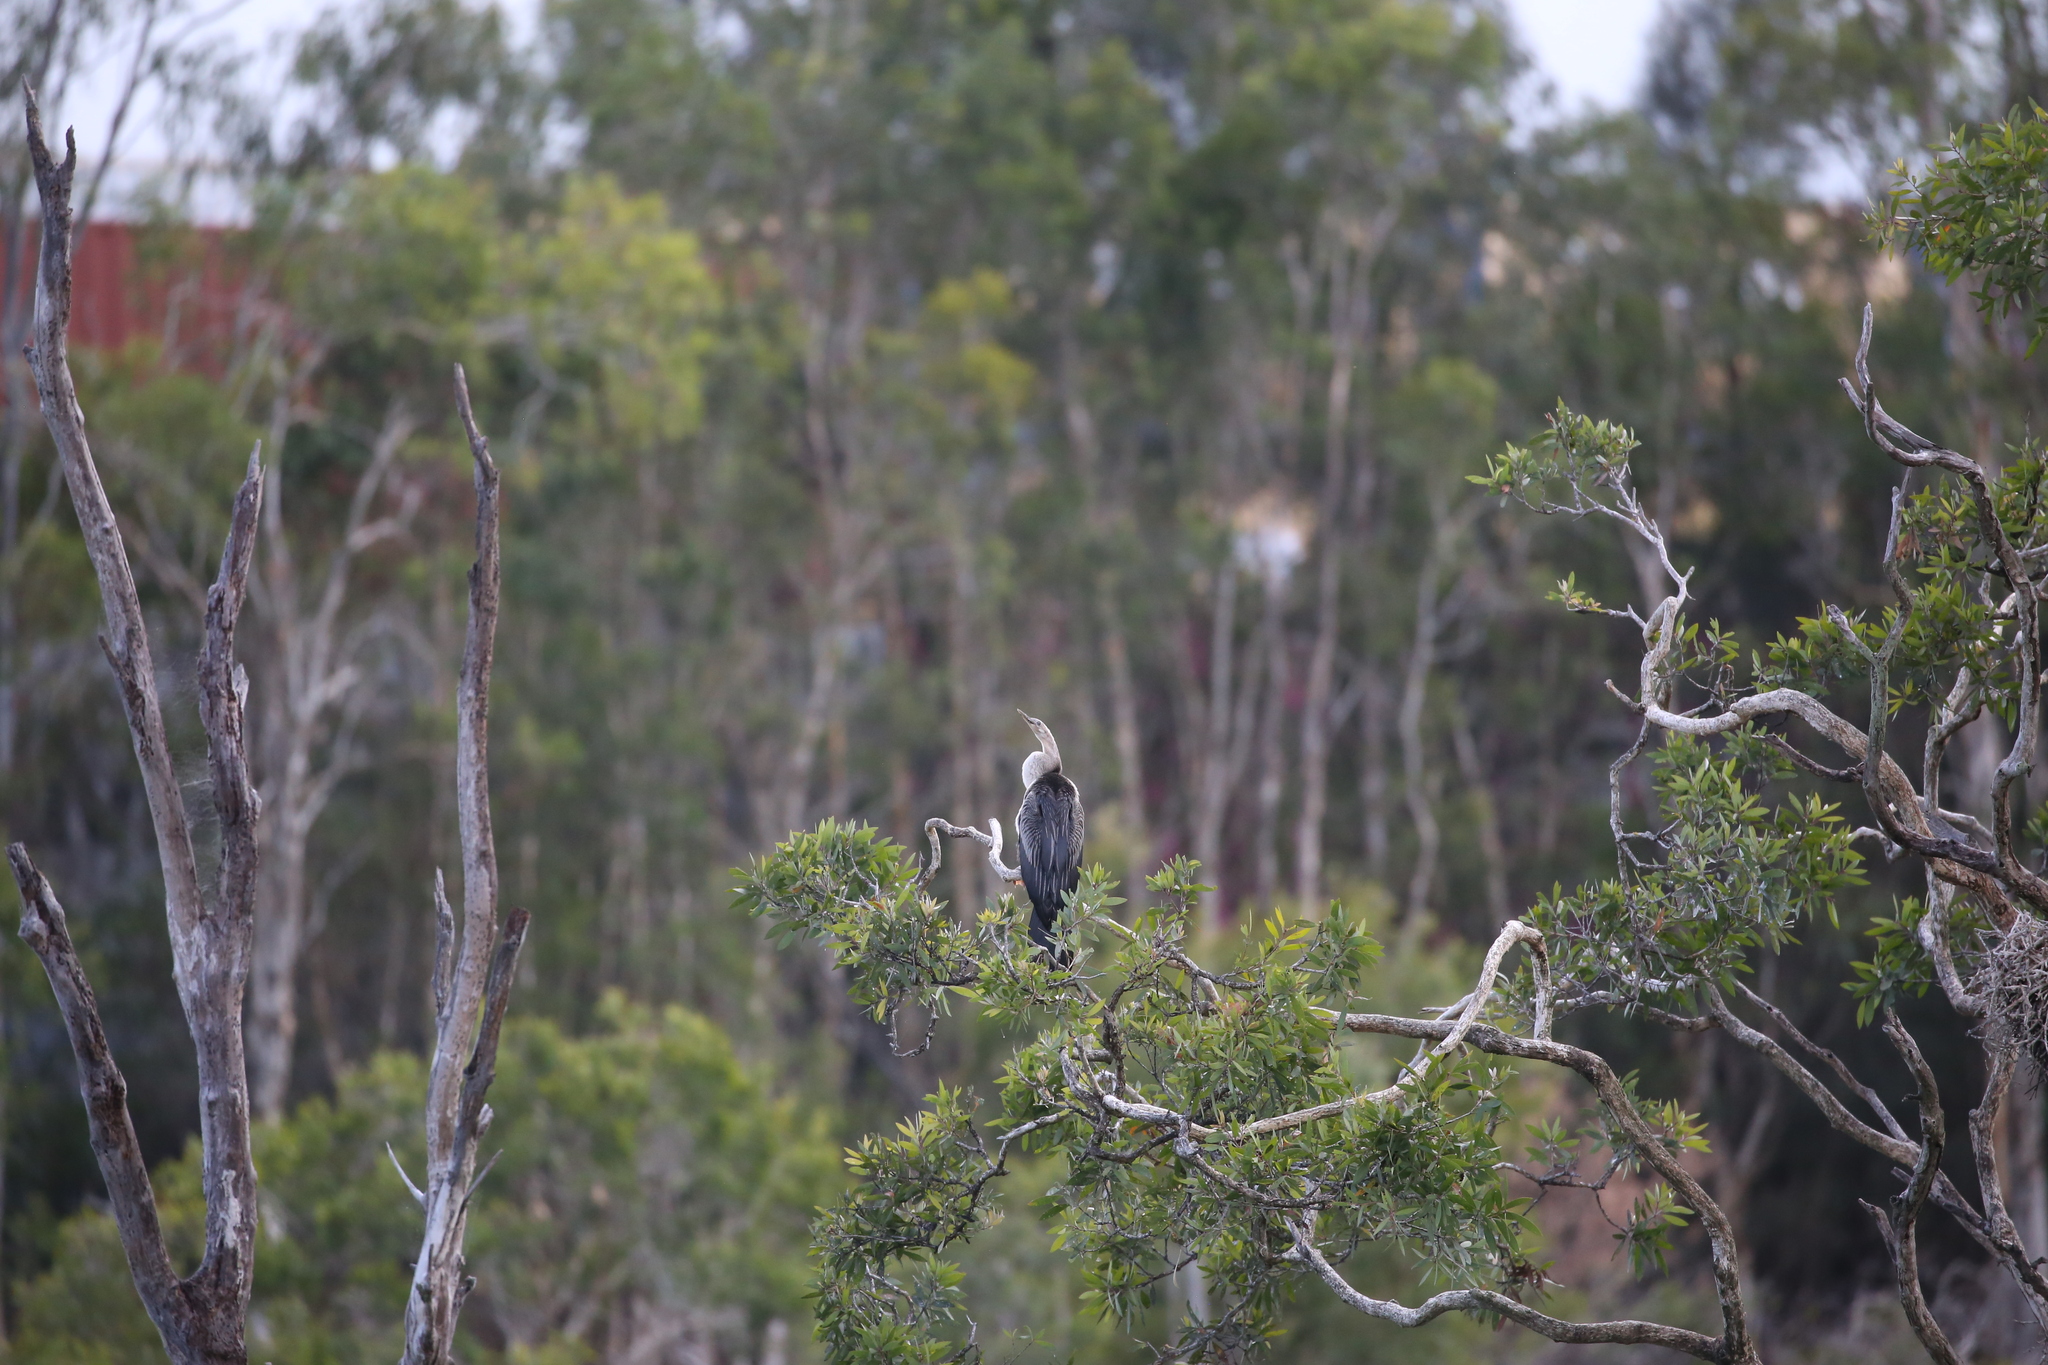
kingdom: Animalia
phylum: Chordata
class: Aves
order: Suliformes
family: Anhingidae
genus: Anhinga
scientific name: Anhinga novaehollandiae
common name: Australasian darter
